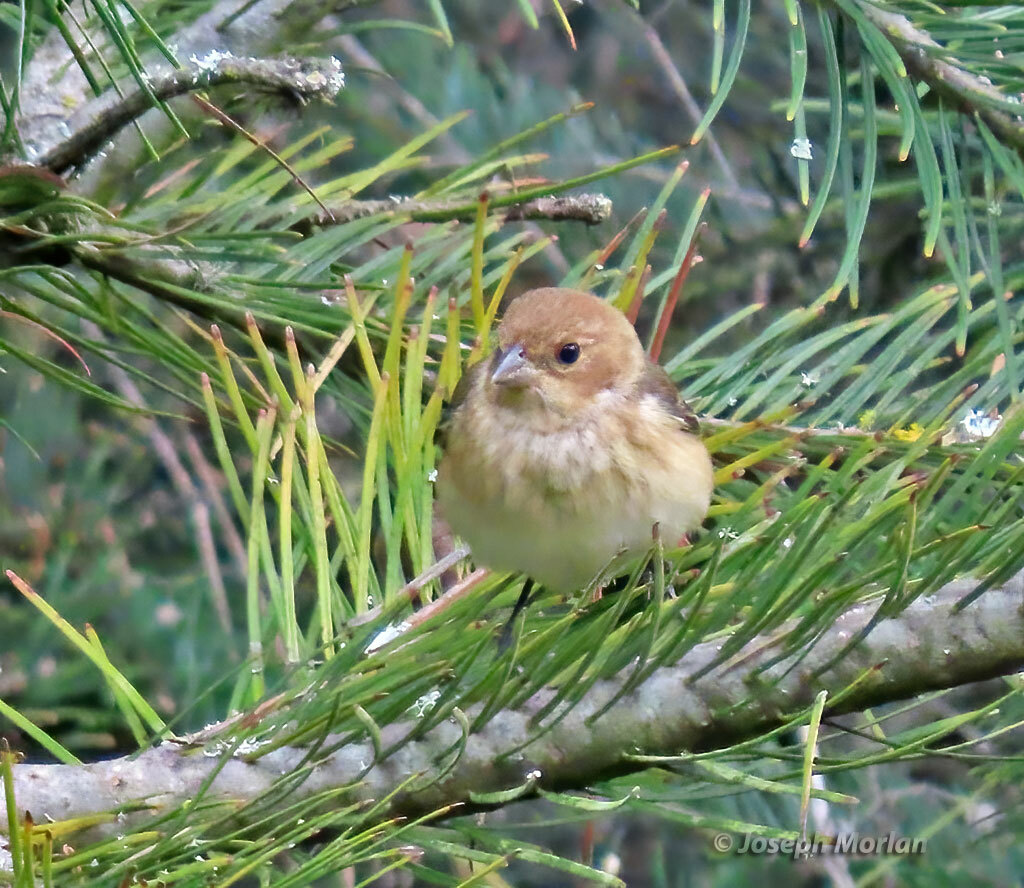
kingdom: Animalia
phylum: Chordata
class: Aves
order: Passeriformes
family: Cardinalidae
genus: Passerina
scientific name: Passerina cyanea
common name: Indigo bunting
